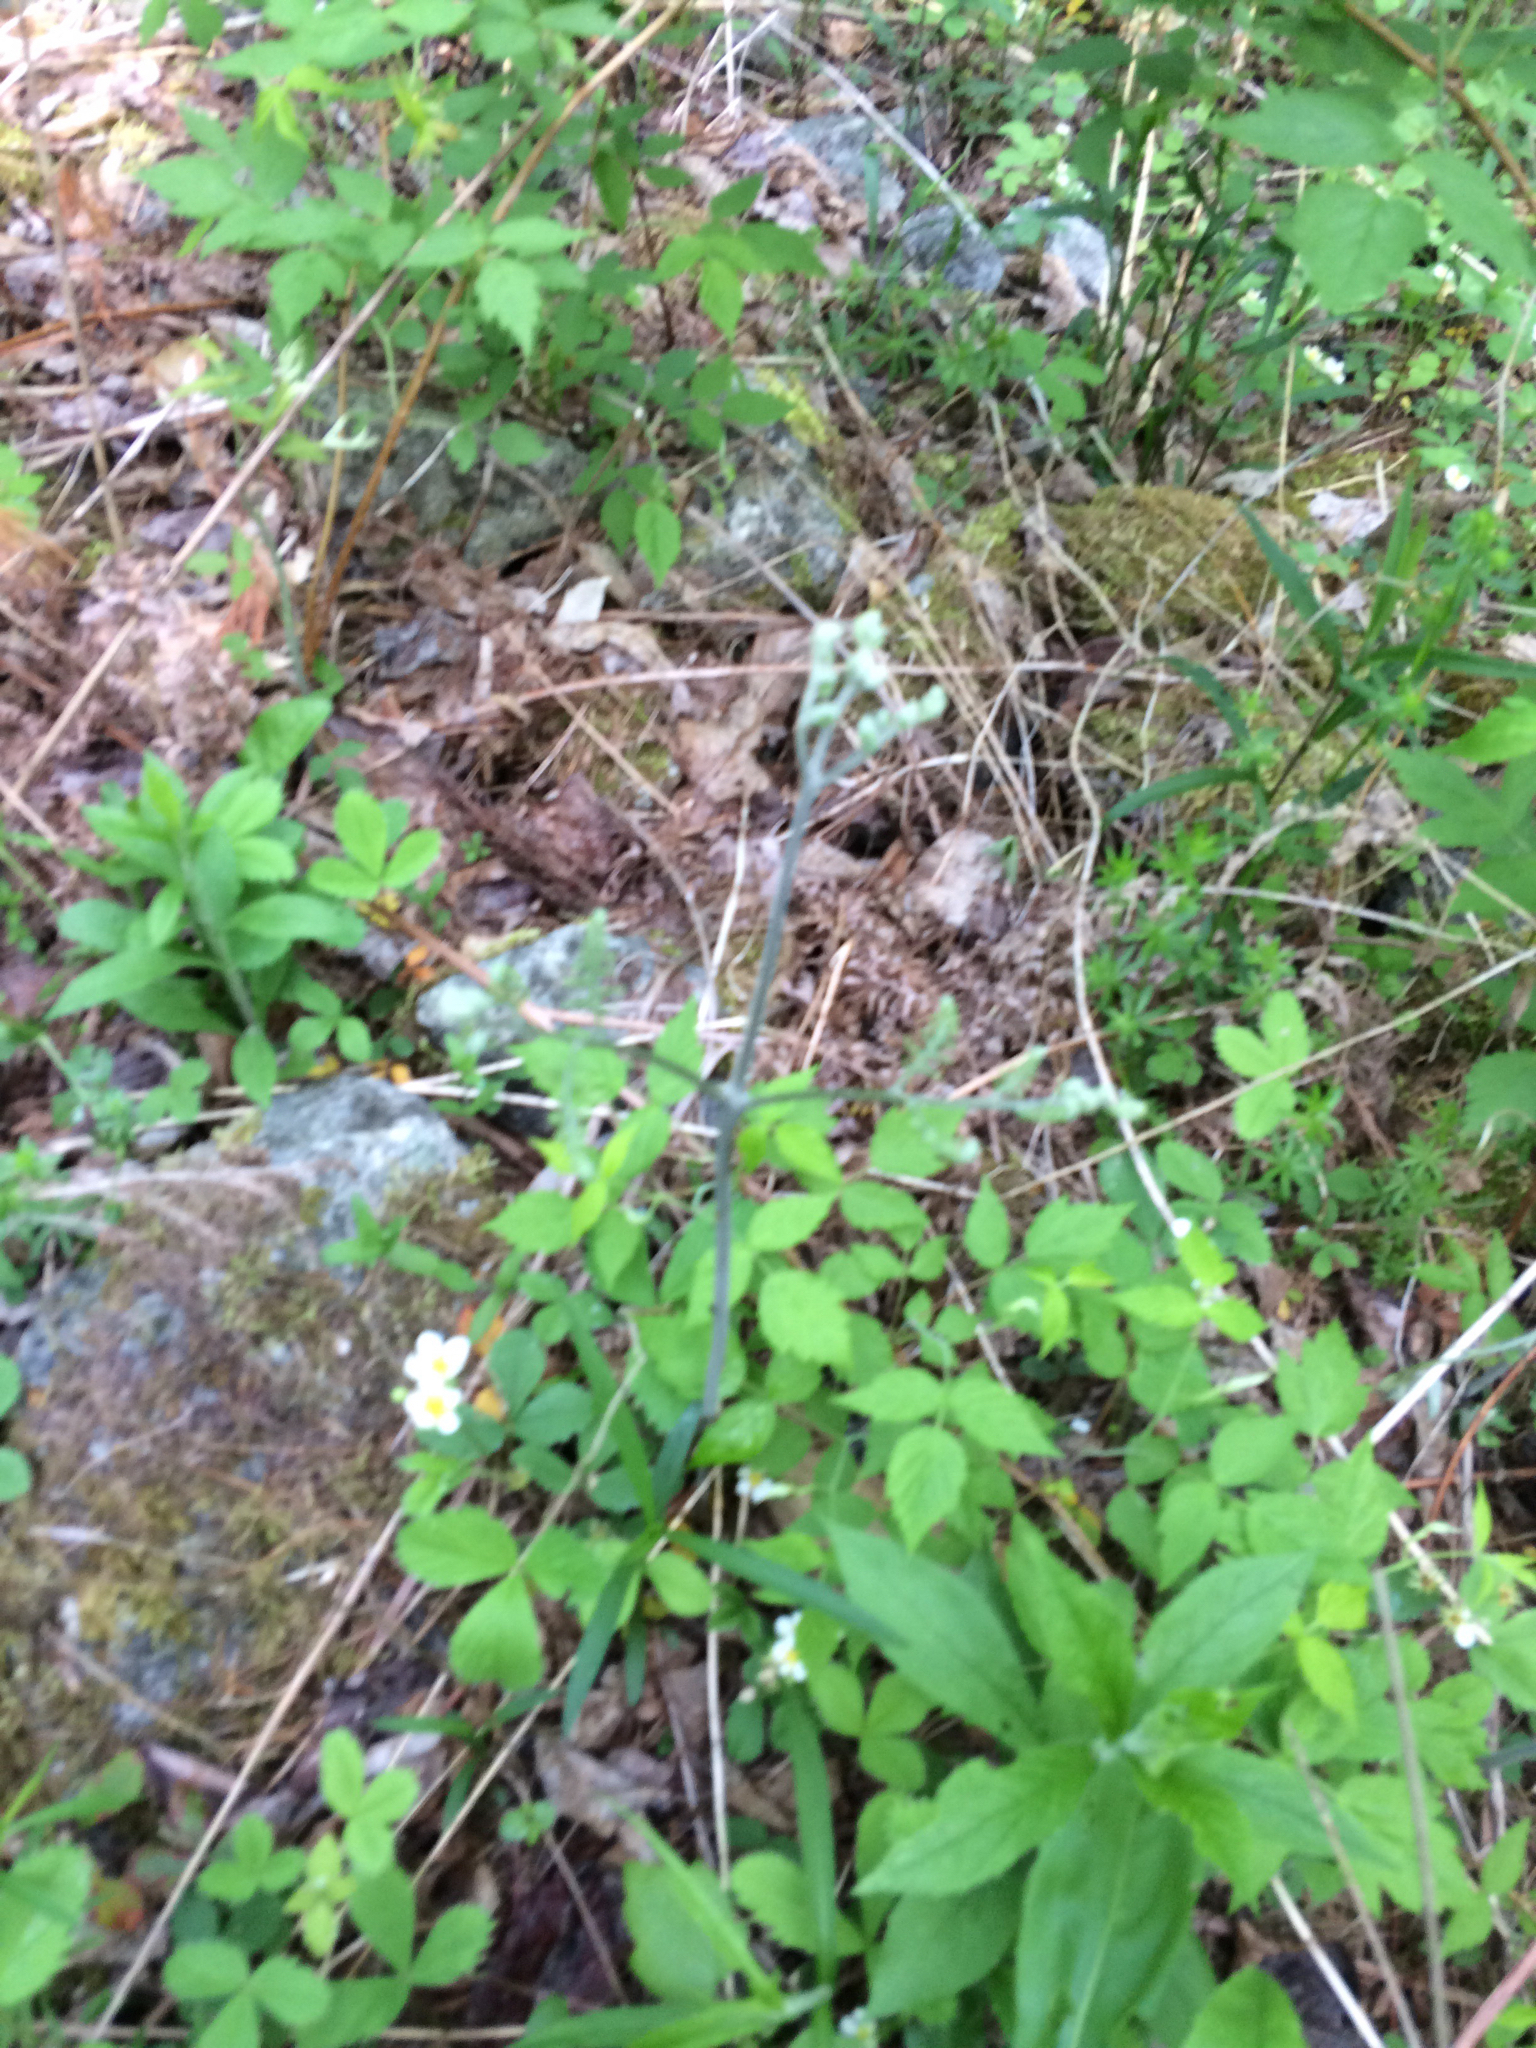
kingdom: Plantae
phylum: Tracheophyta
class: Polypodiopsida
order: Polypodiales
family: Dennstaedtiaceae
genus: Pteridium
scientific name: Pteridium aquilinum
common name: Bracken
